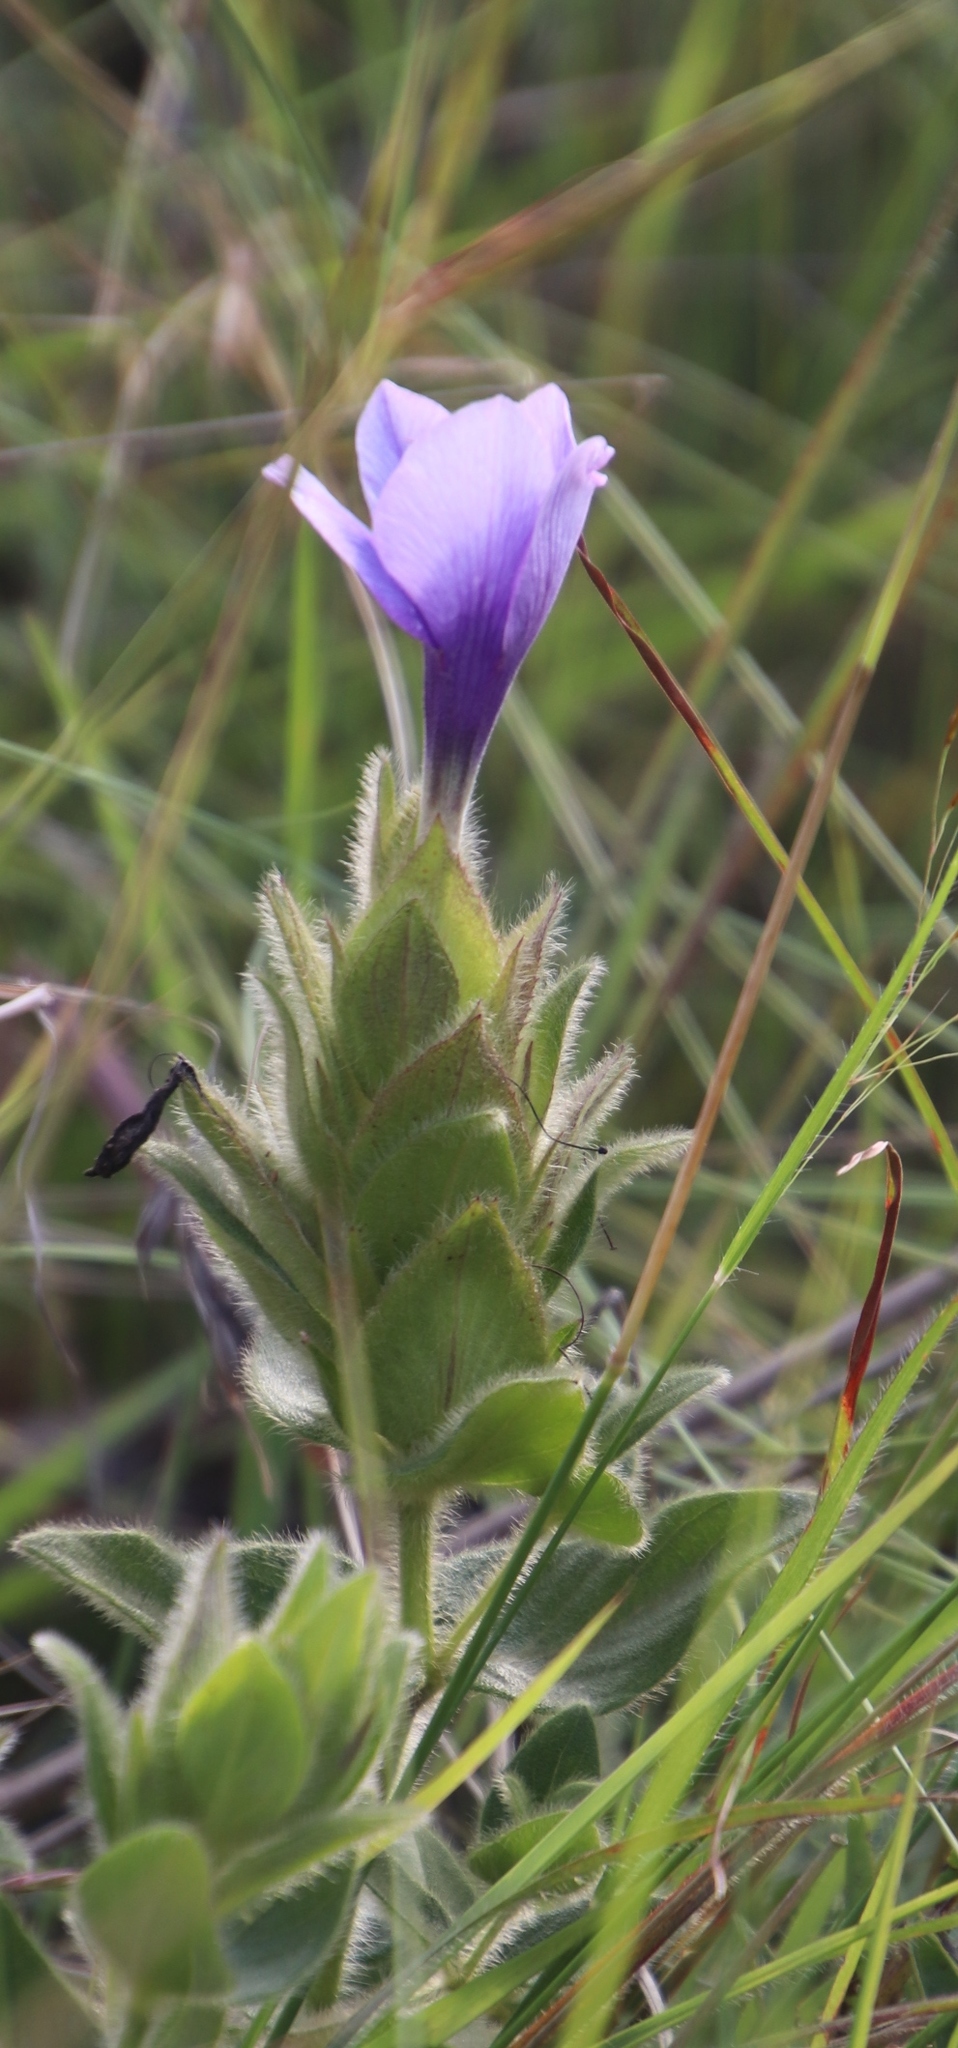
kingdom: Plantae
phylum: Tracheophyta
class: Magnoliopsida
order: Lamiales
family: Acanthaceae
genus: Barleria
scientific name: Barleria ovata
